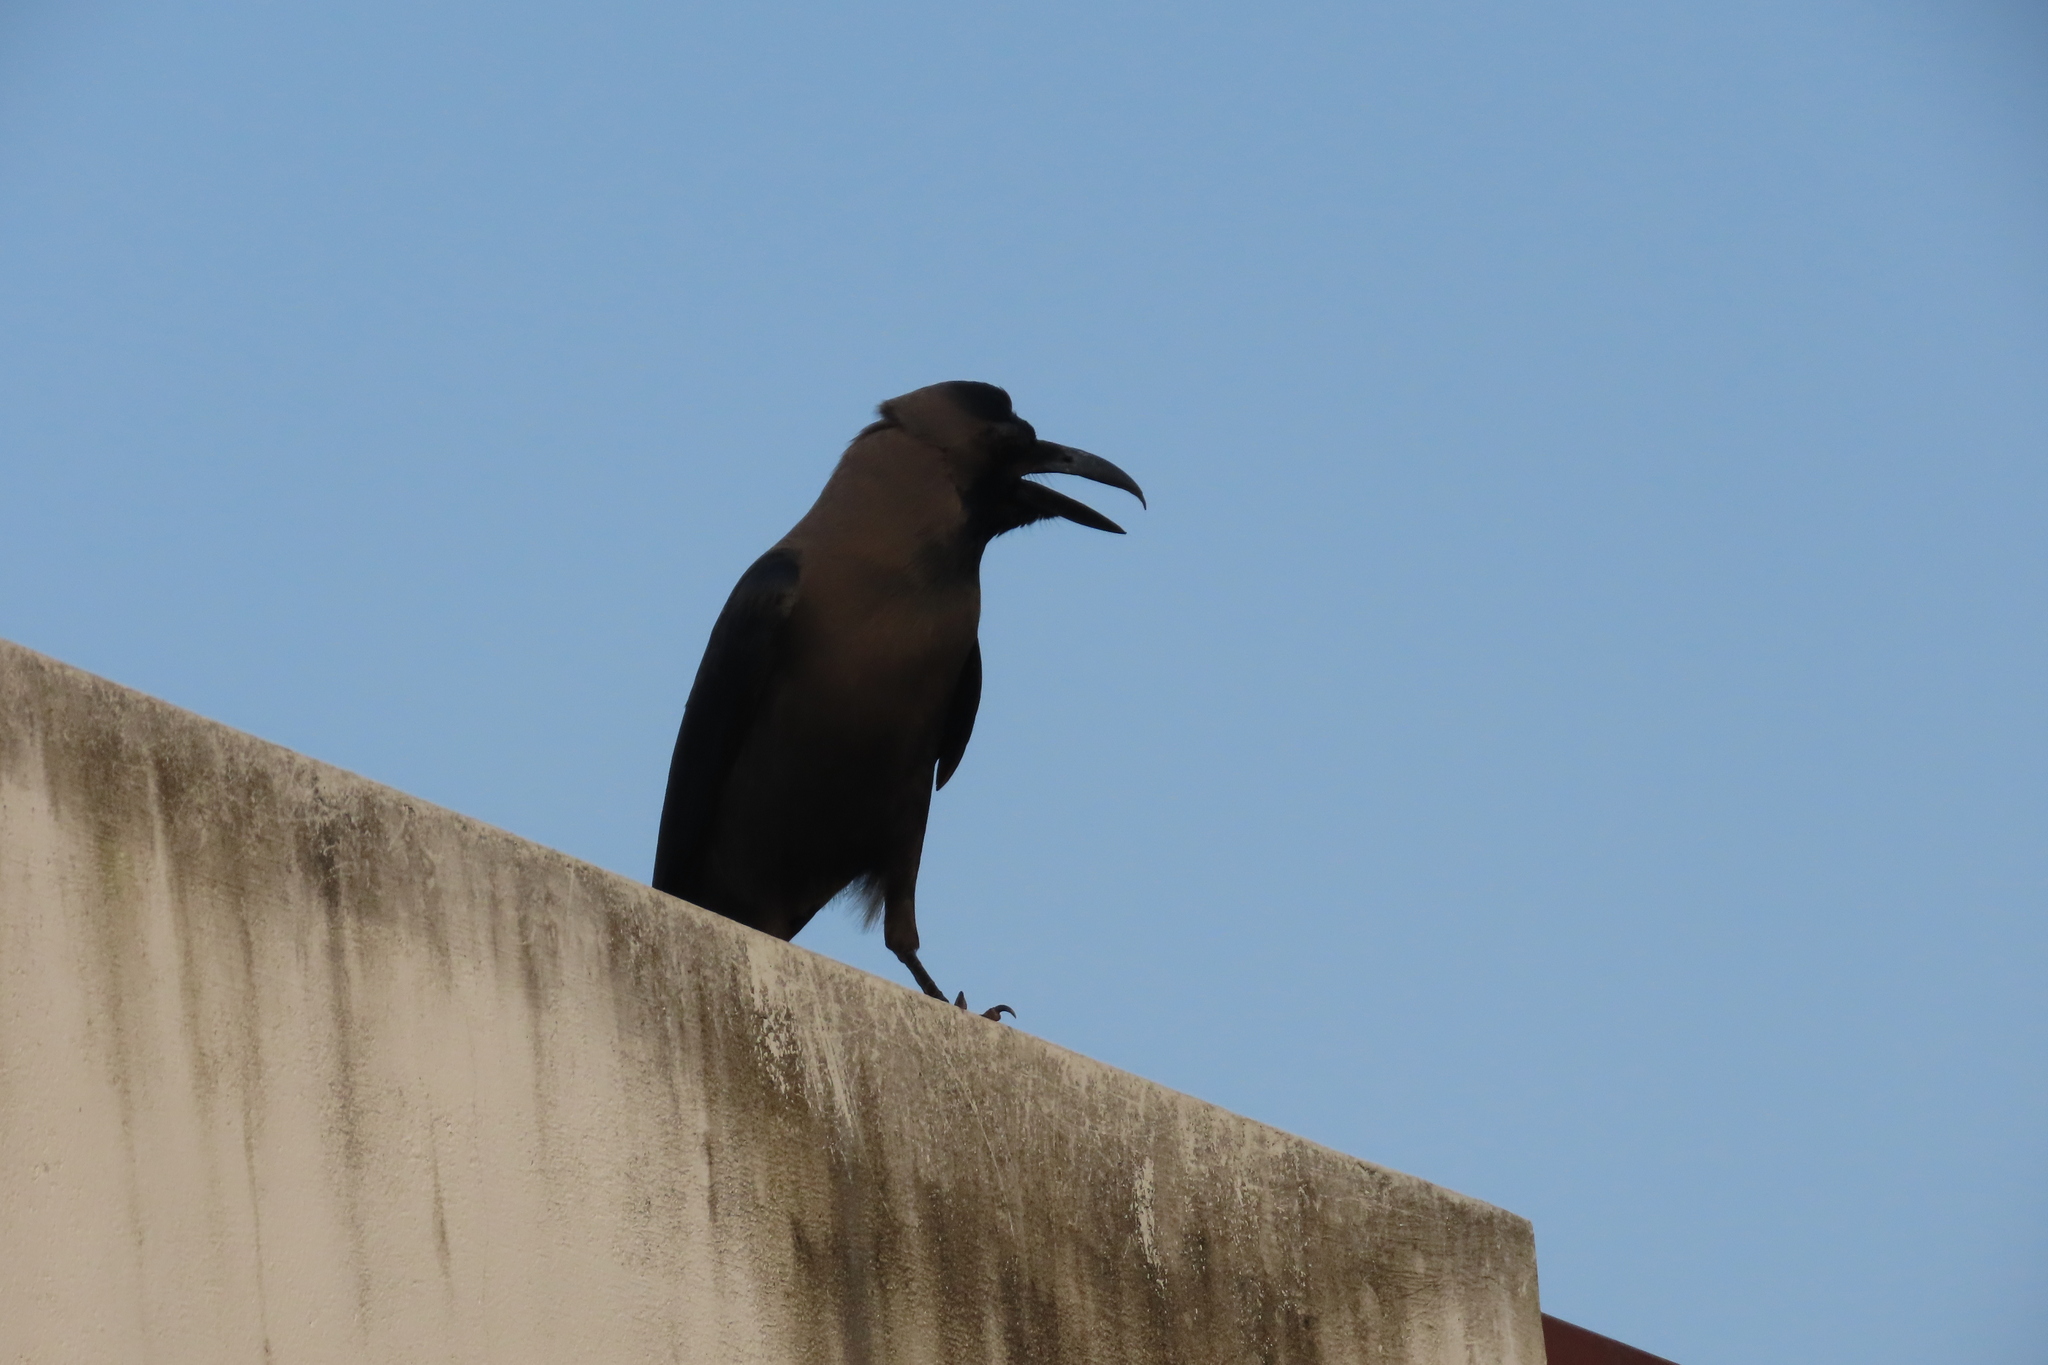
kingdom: Animalia
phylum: Chordata
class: Aves
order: Passeriformes
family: Corvidae
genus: Corvus
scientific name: Corvus splendens
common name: House crow
